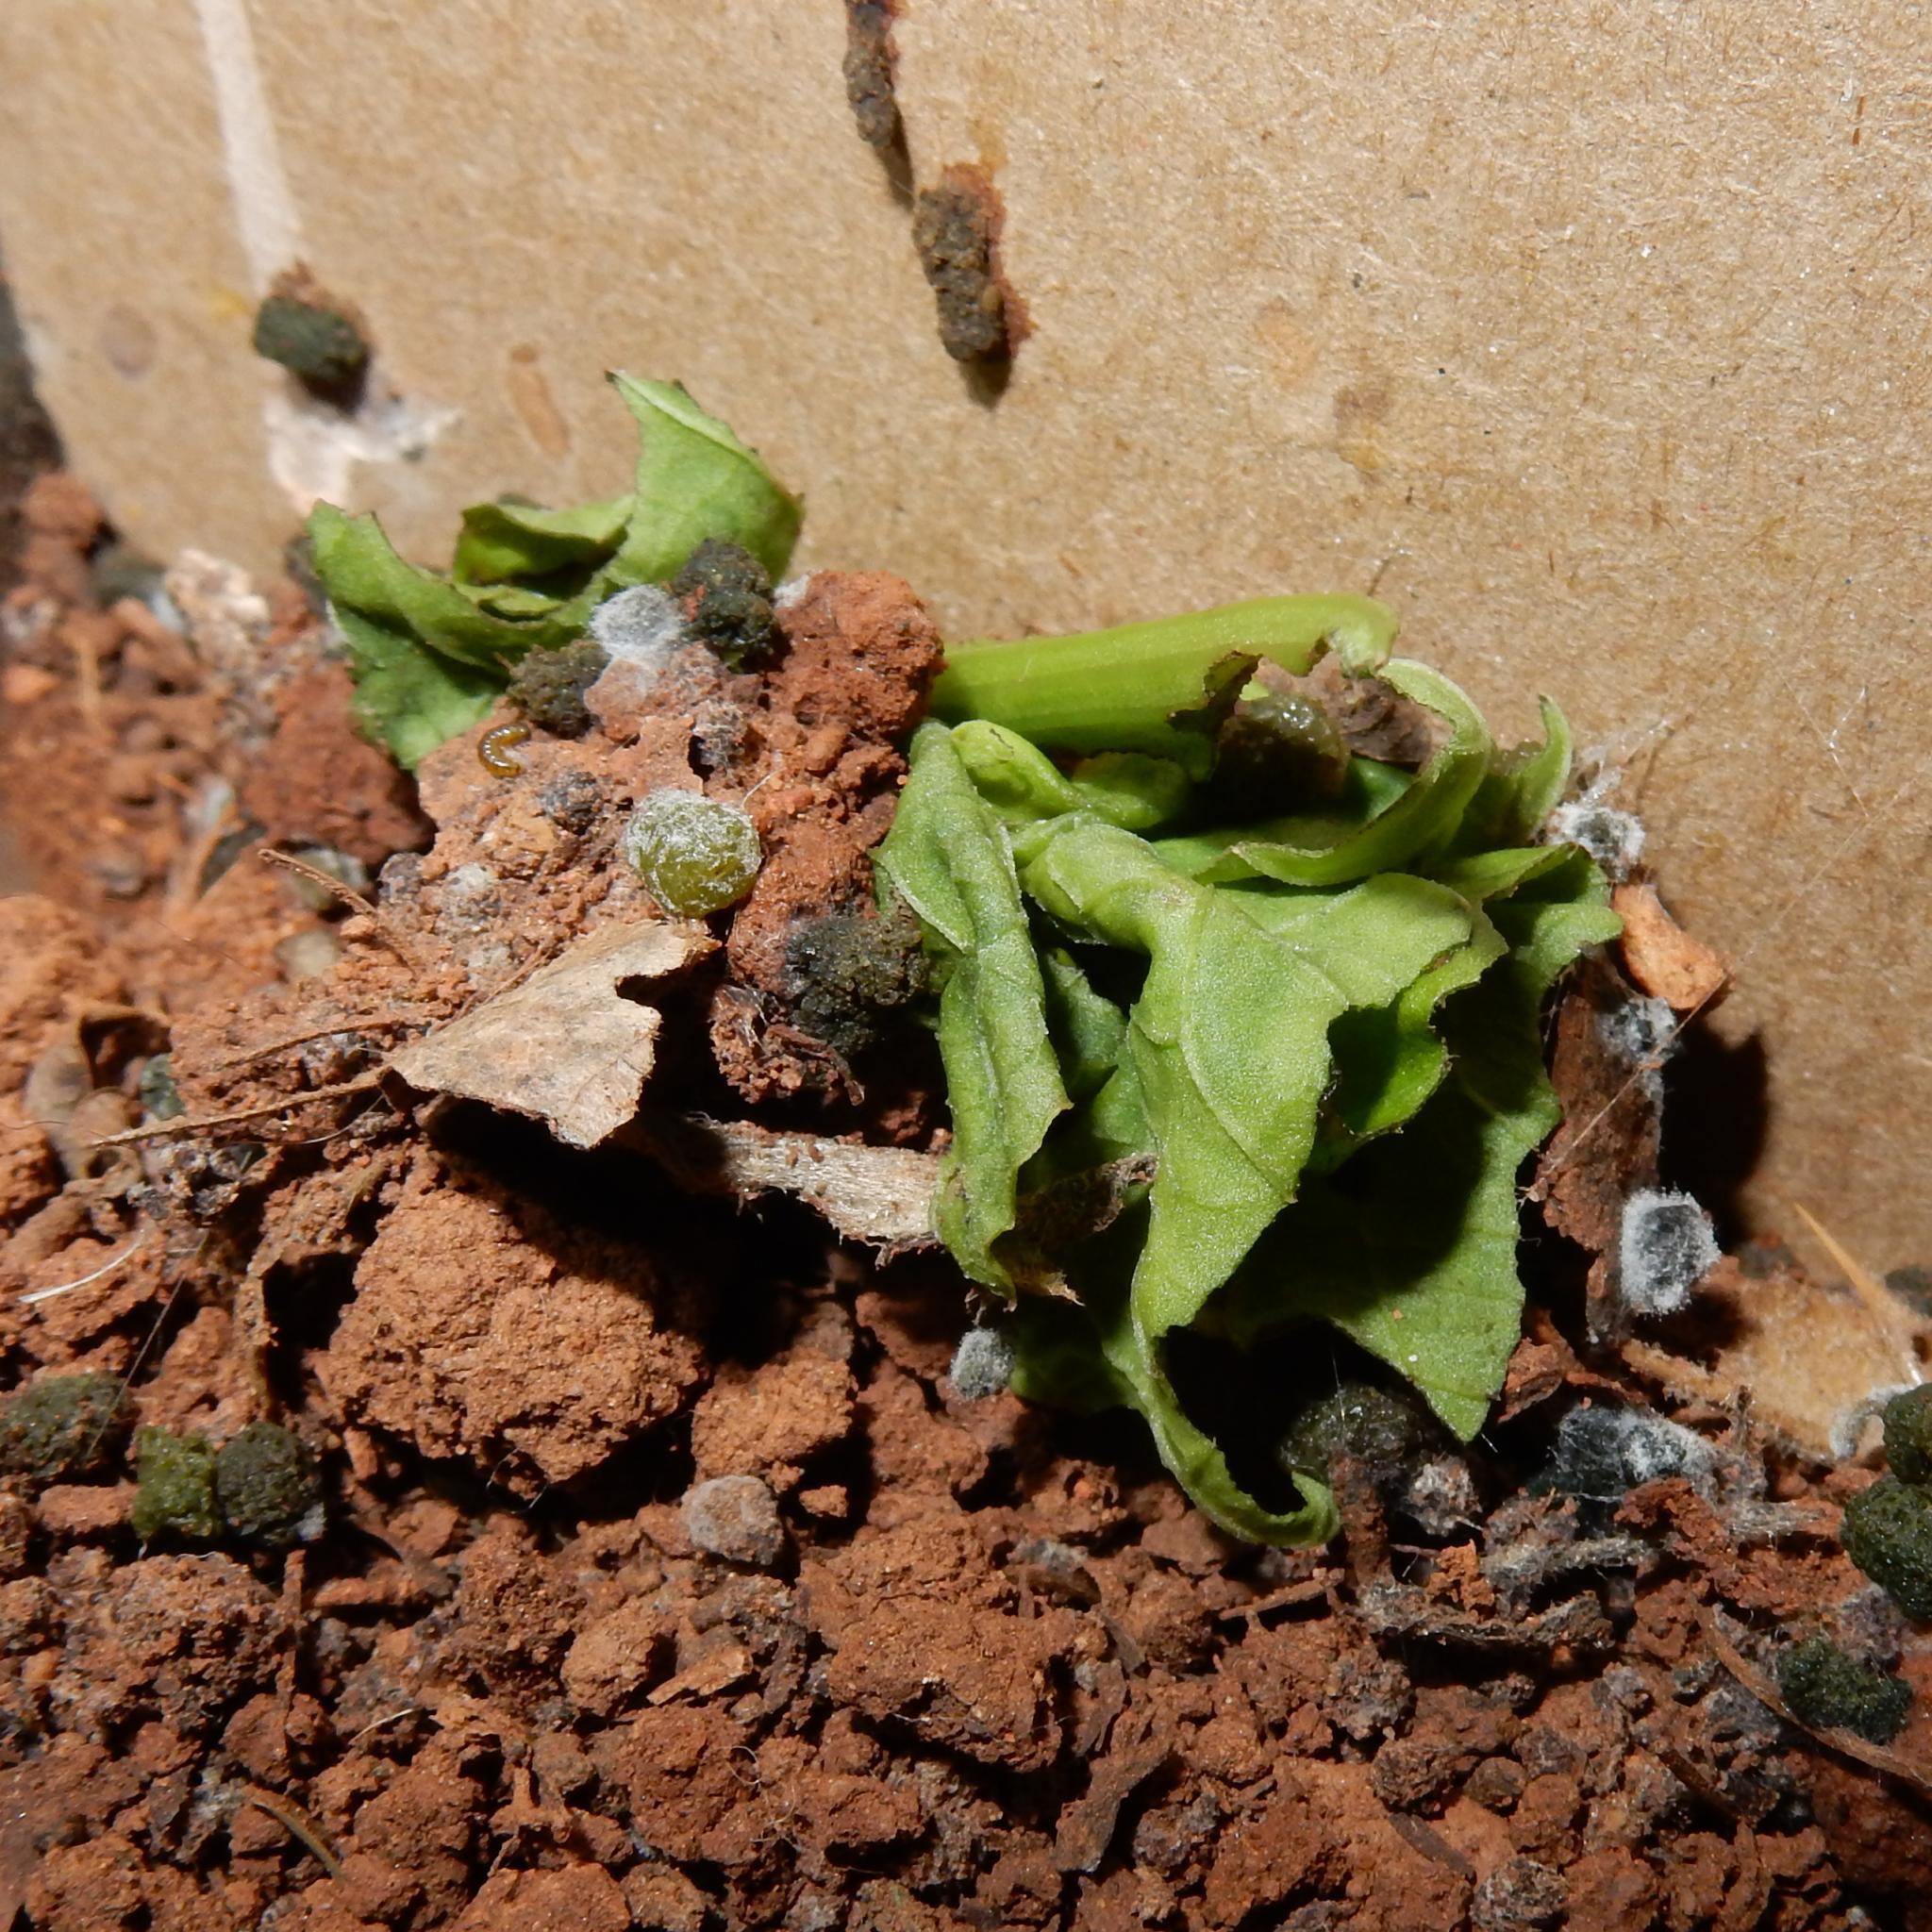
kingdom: Animalia
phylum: Arthropoda
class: Insecta
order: Lepidoptera
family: Erebidae
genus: Afromurzinia
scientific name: Afromurzinia lutescens
